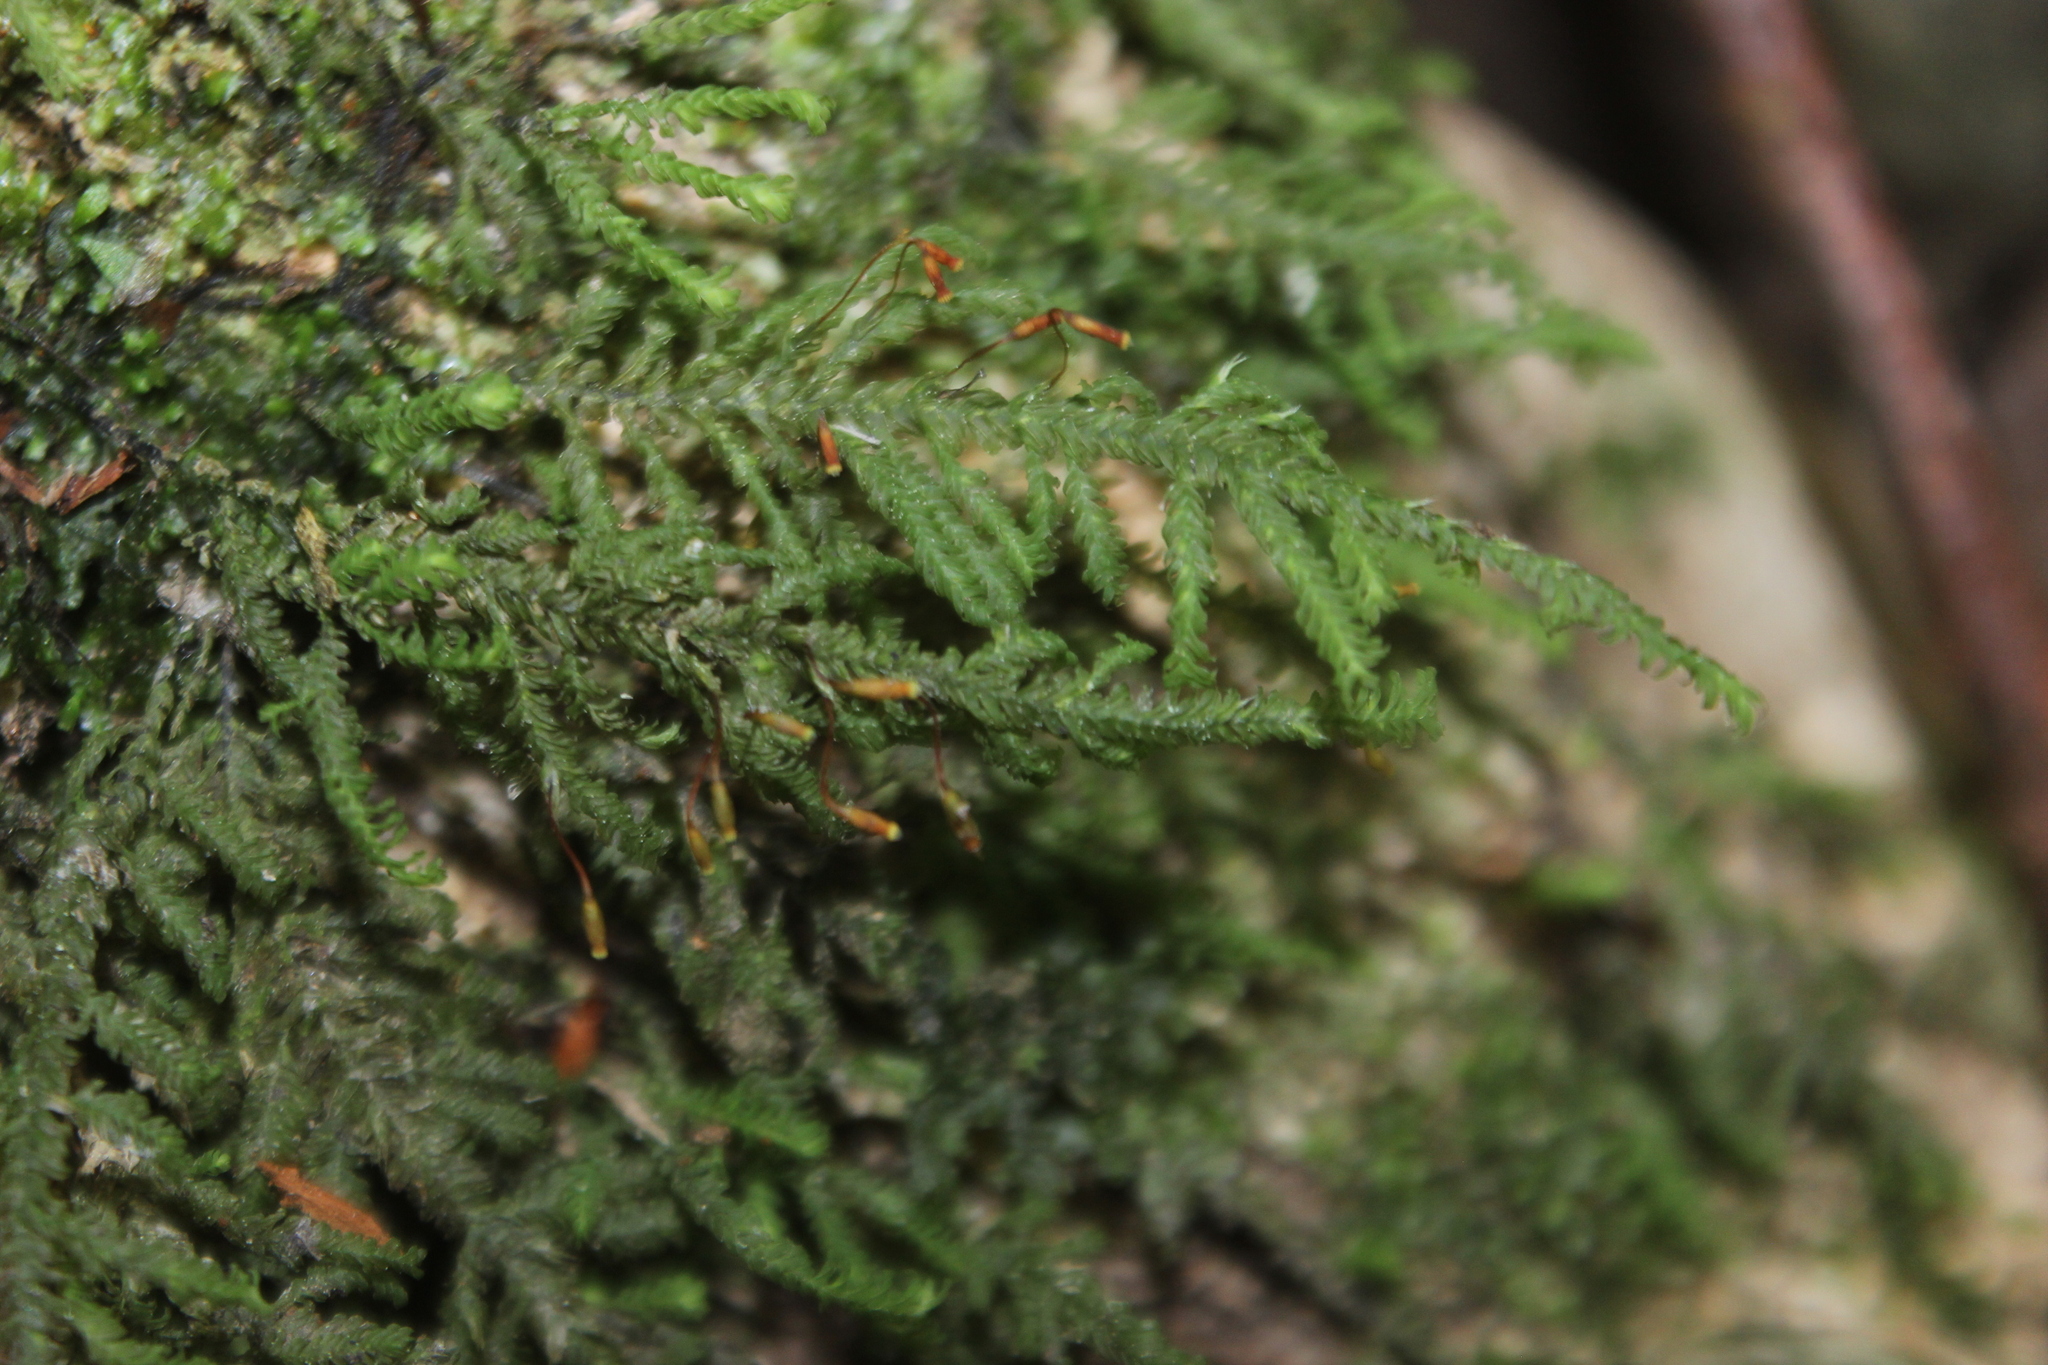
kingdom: Plantae
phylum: Bryophyta
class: Bryopsida
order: Hypopterygiales
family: Hypopterygiaceae
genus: Lopidium
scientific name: Lopidium concinnum
